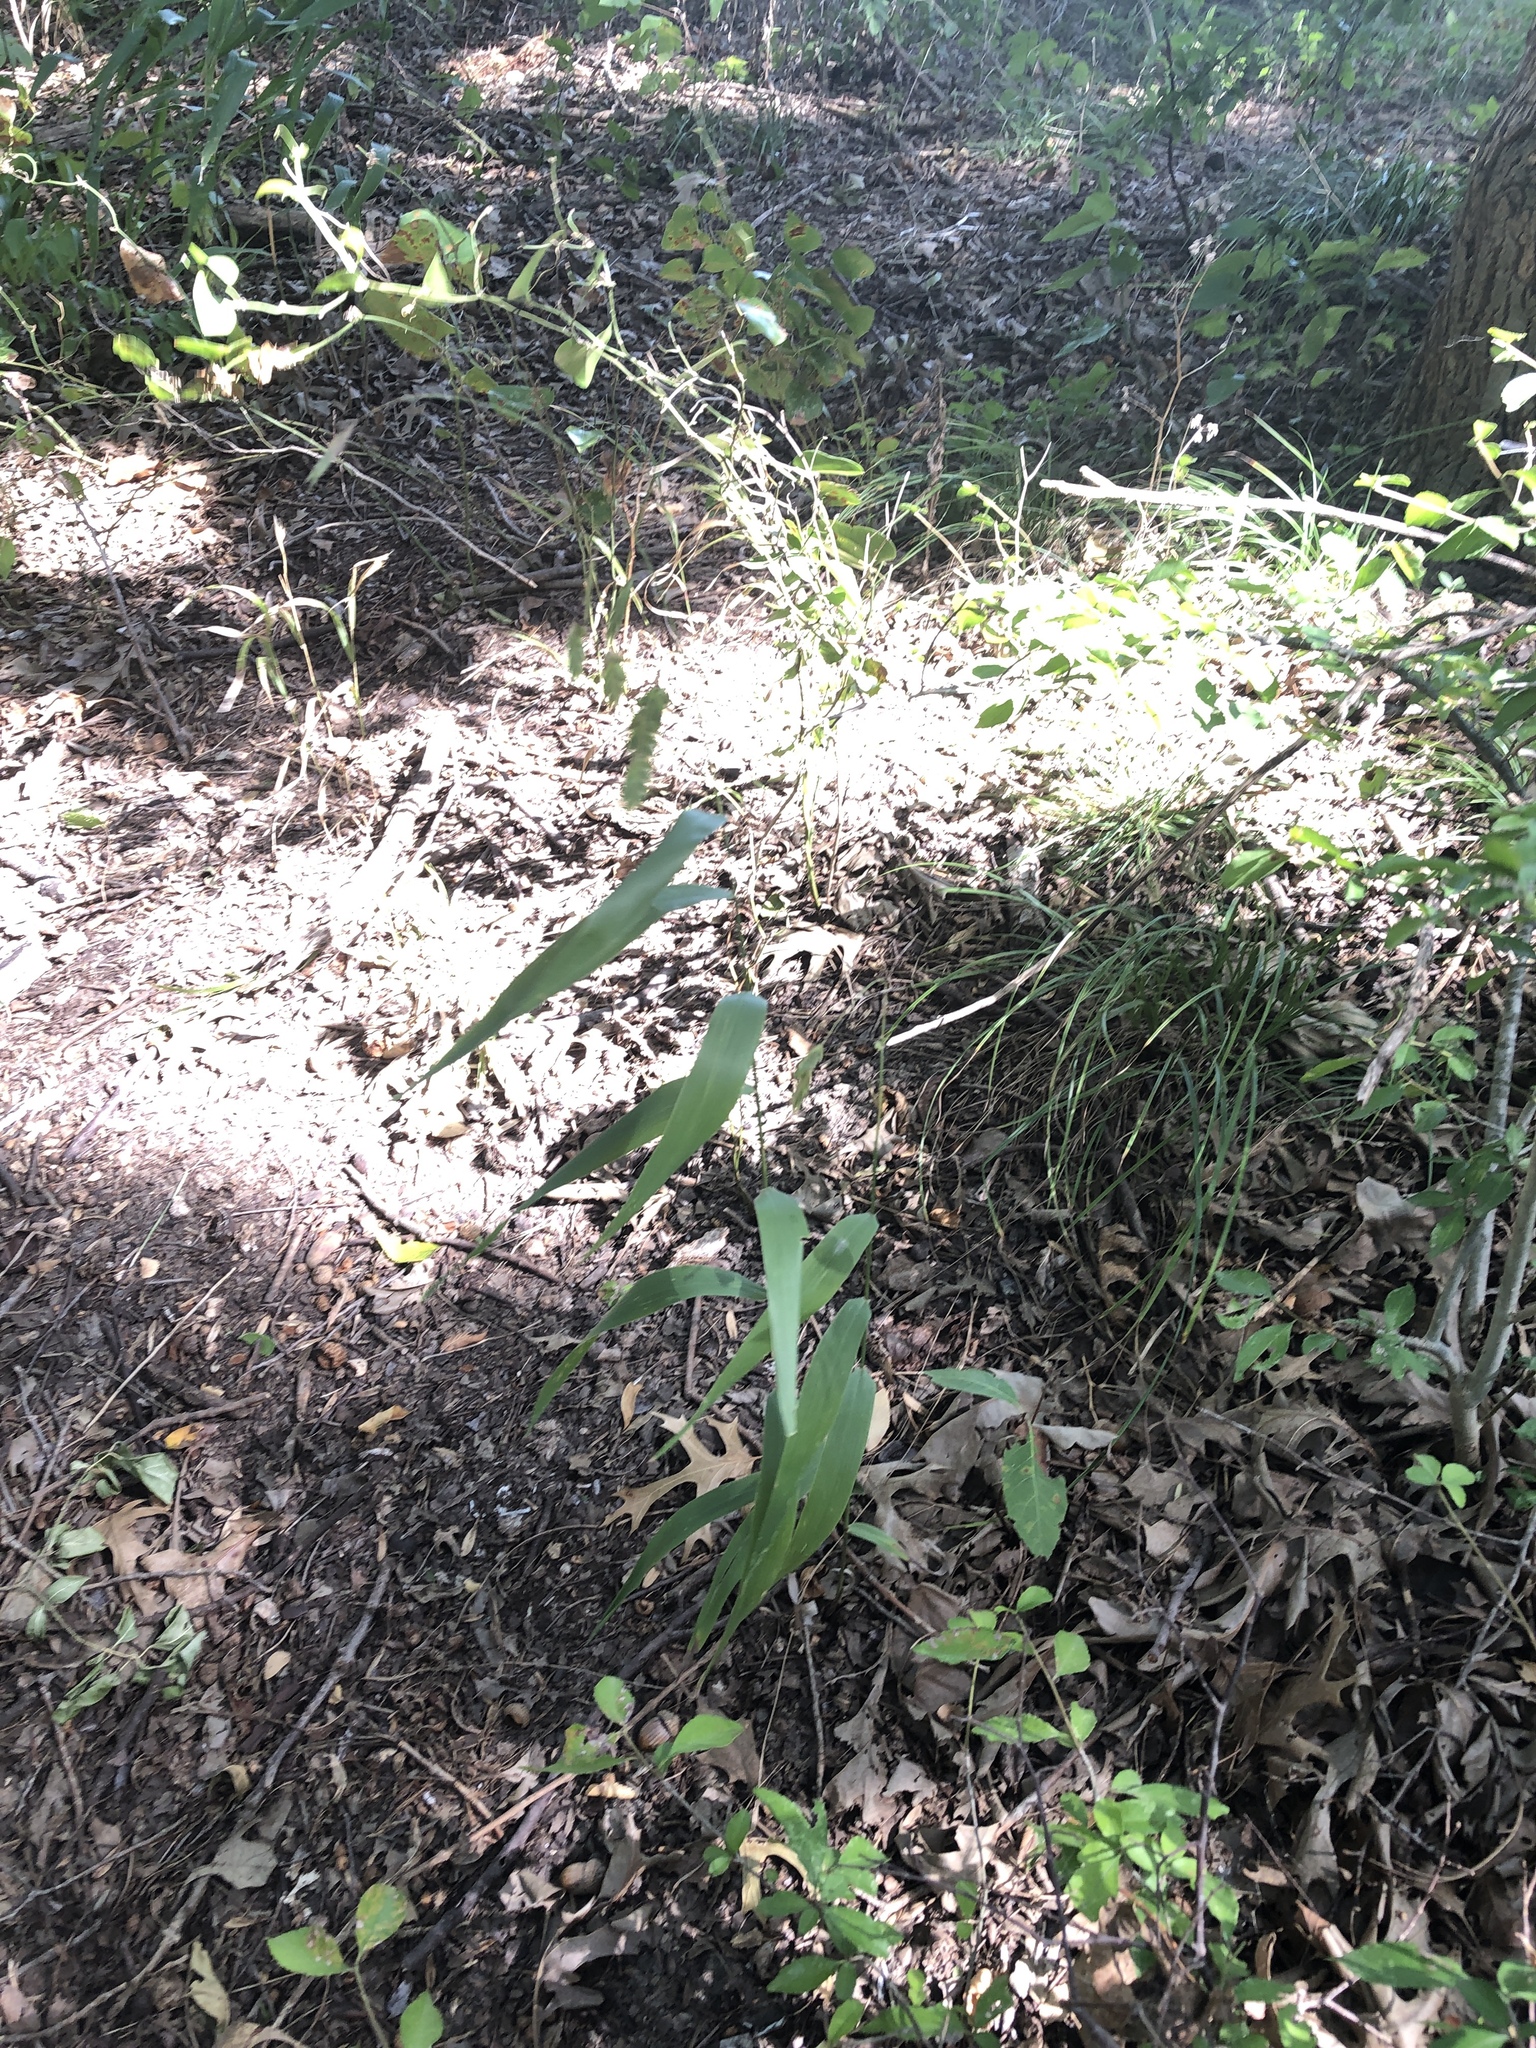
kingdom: Plantae
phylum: Tracheophyta
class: Liliopsida
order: Poales
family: Poaceae
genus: Chasmanthium
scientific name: Chasmanthium latifolium
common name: Broad-leaved chasmanthium
